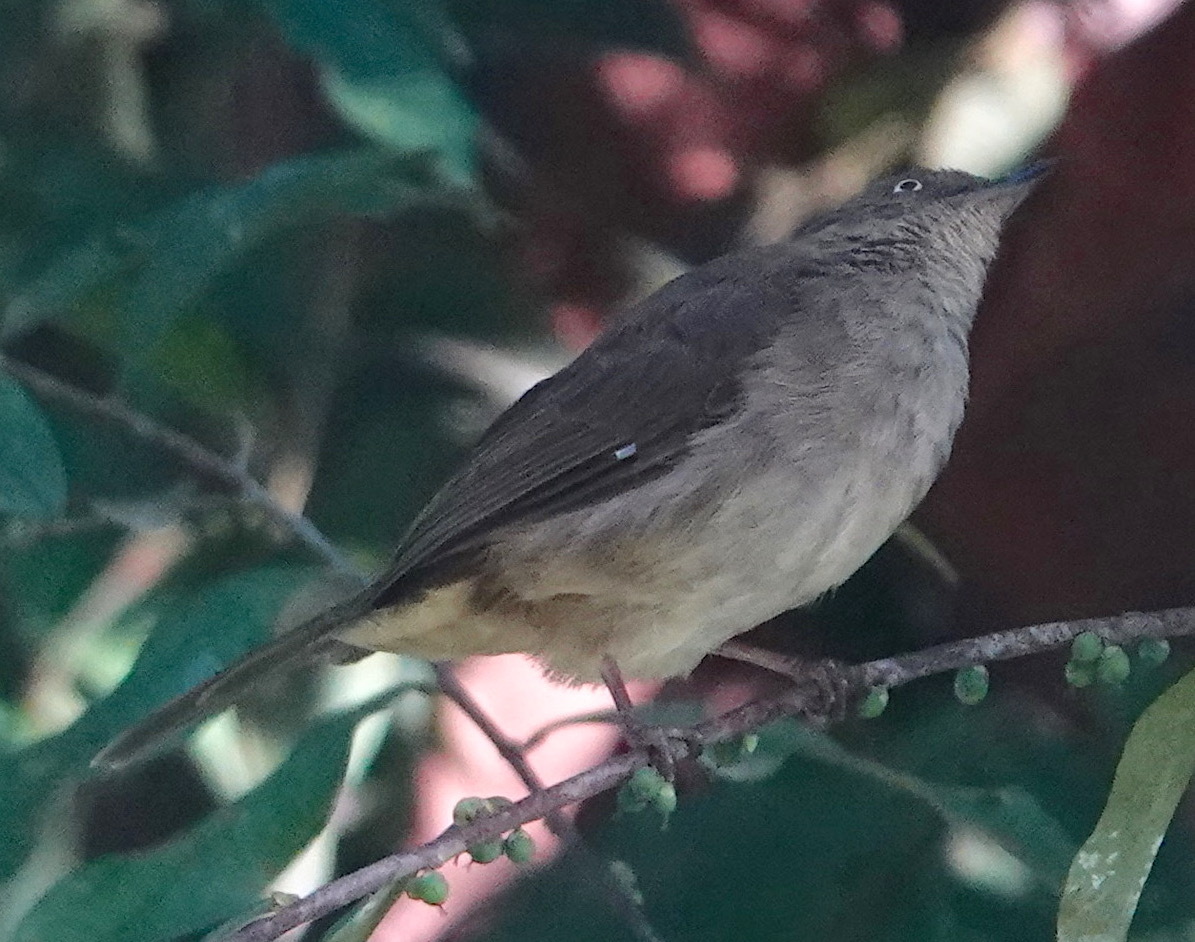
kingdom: Animalia
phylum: Chordata
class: Aves
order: Passeriformes
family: Pycnonotidae
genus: Pycnonotus
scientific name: Pycnonotus simplex
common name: Cream-vented bulbul
